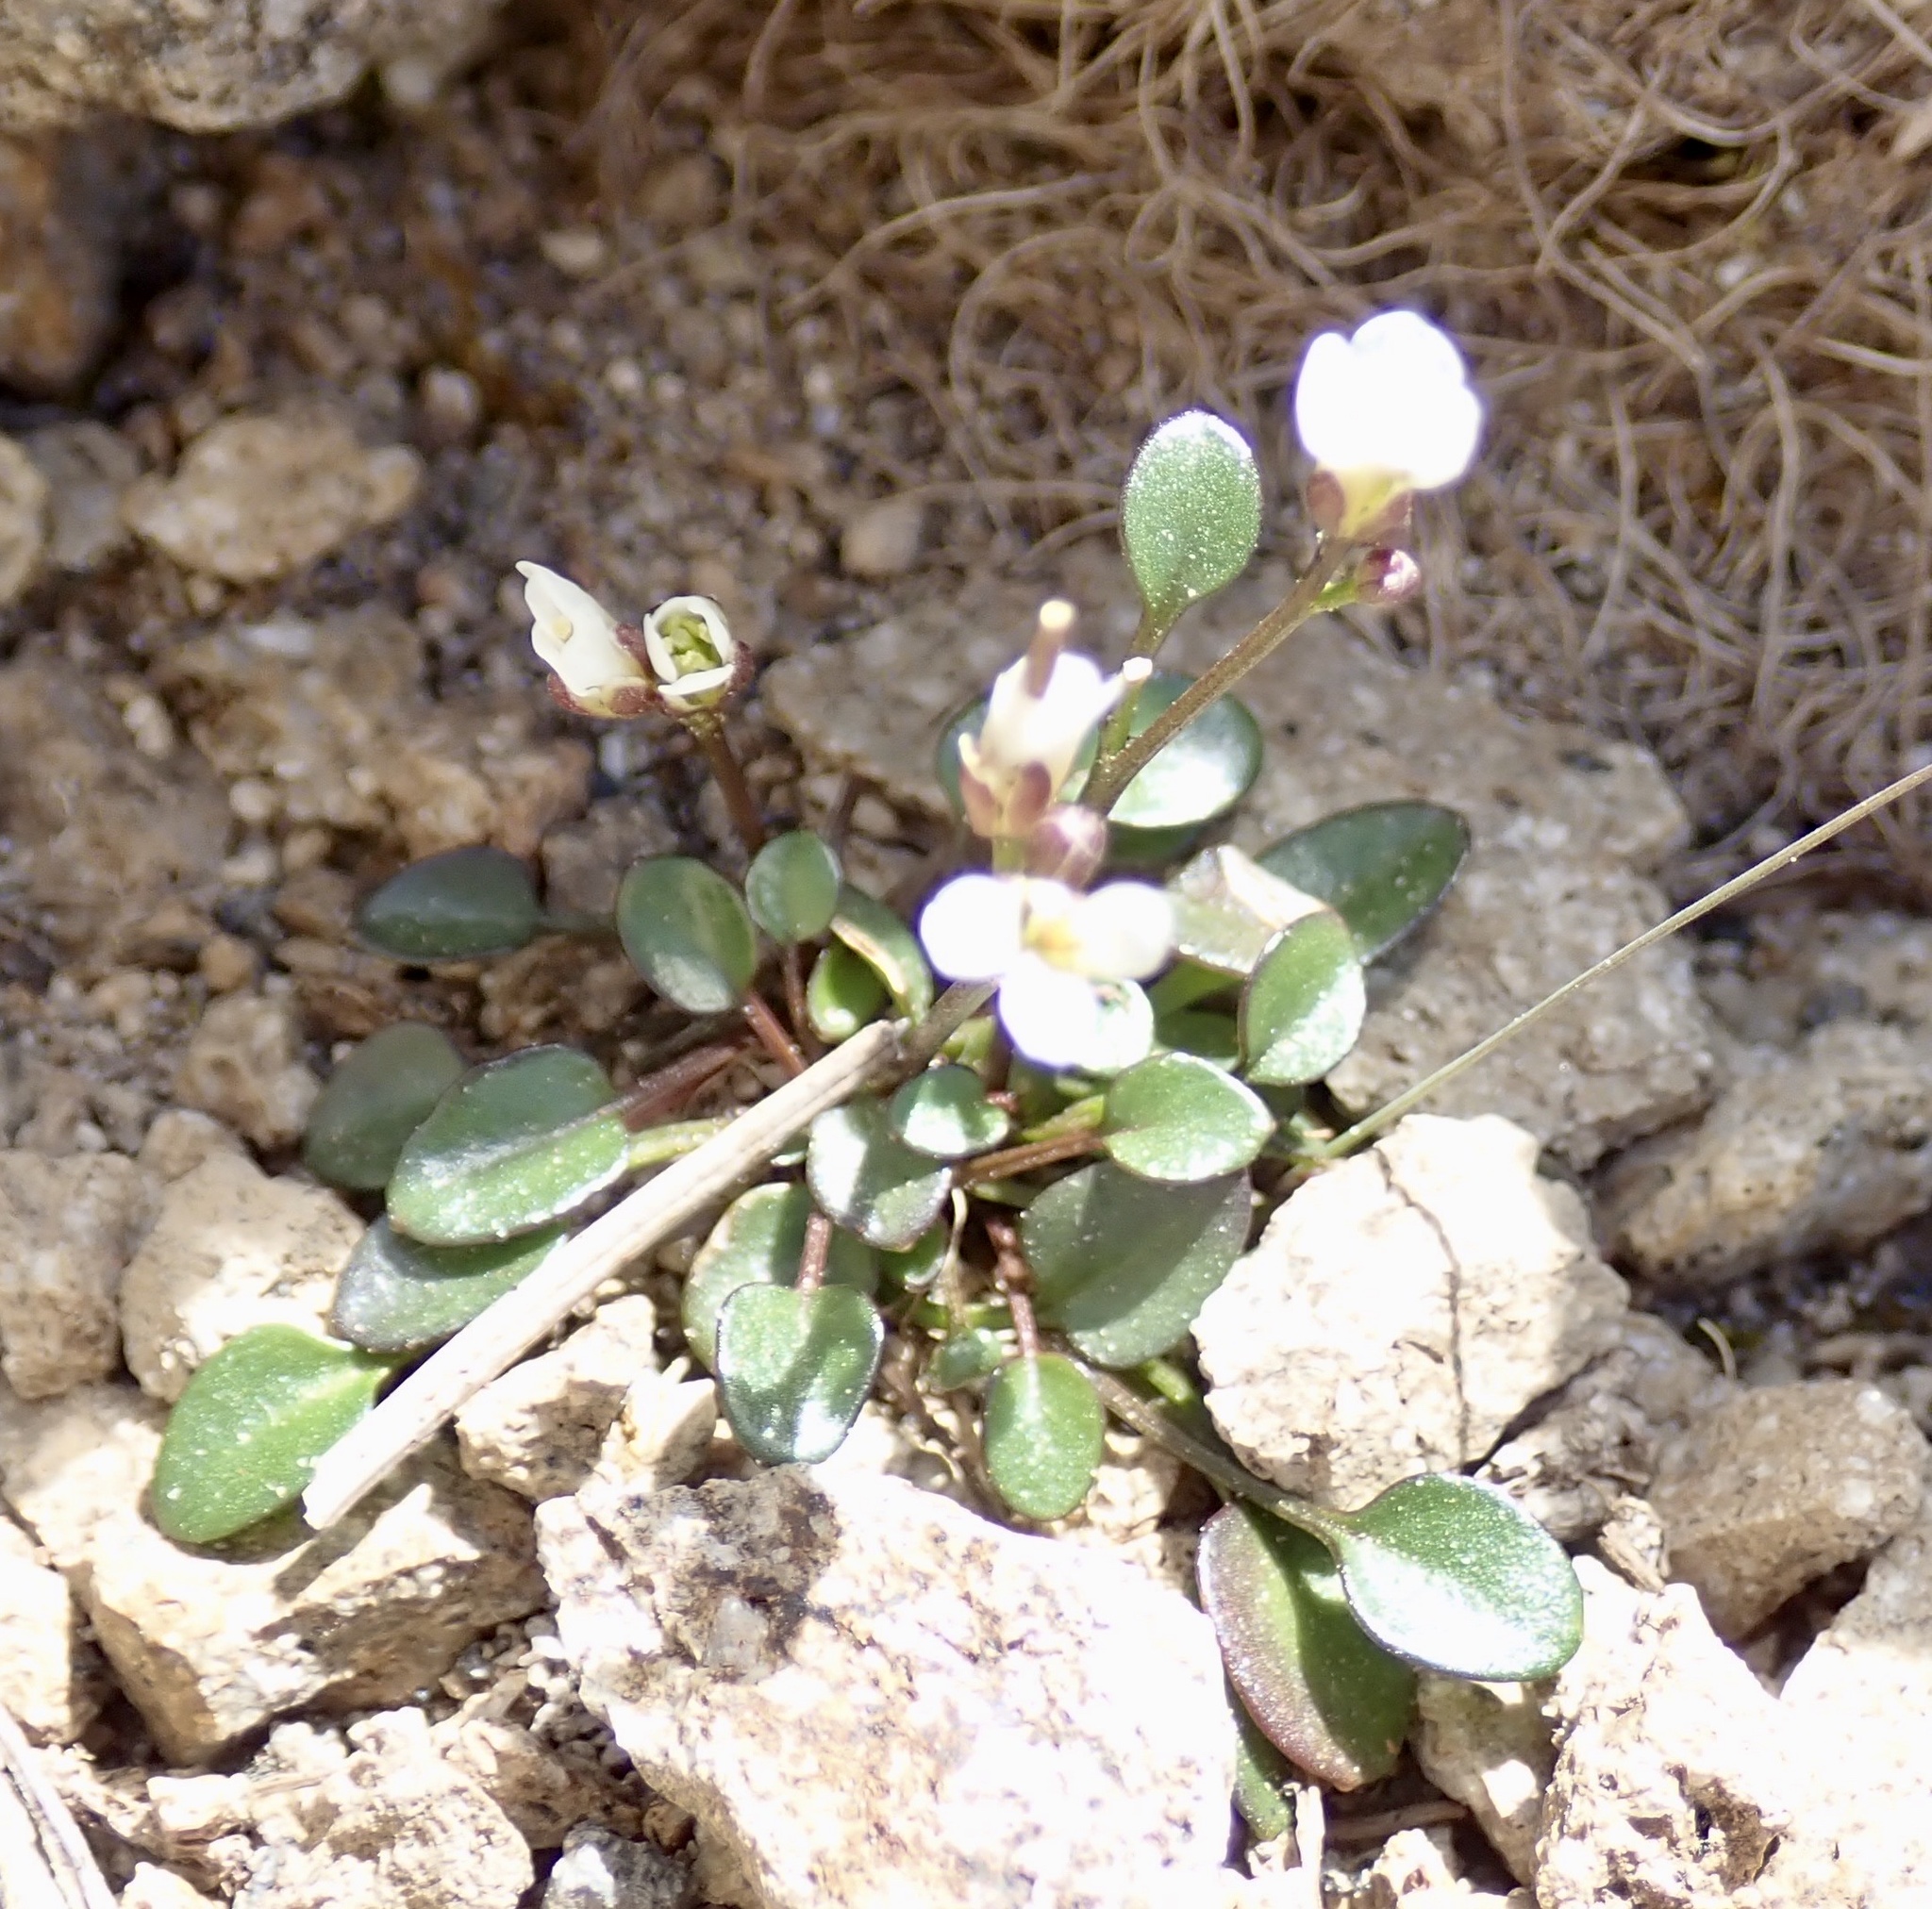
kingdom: Plantae
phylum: Tracheophyta
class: Magnoliopsida
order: Brassicales
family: Brassicaceae
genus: Cardamine
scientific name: Cardamine bellidifolia
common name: Alpine bittercress
